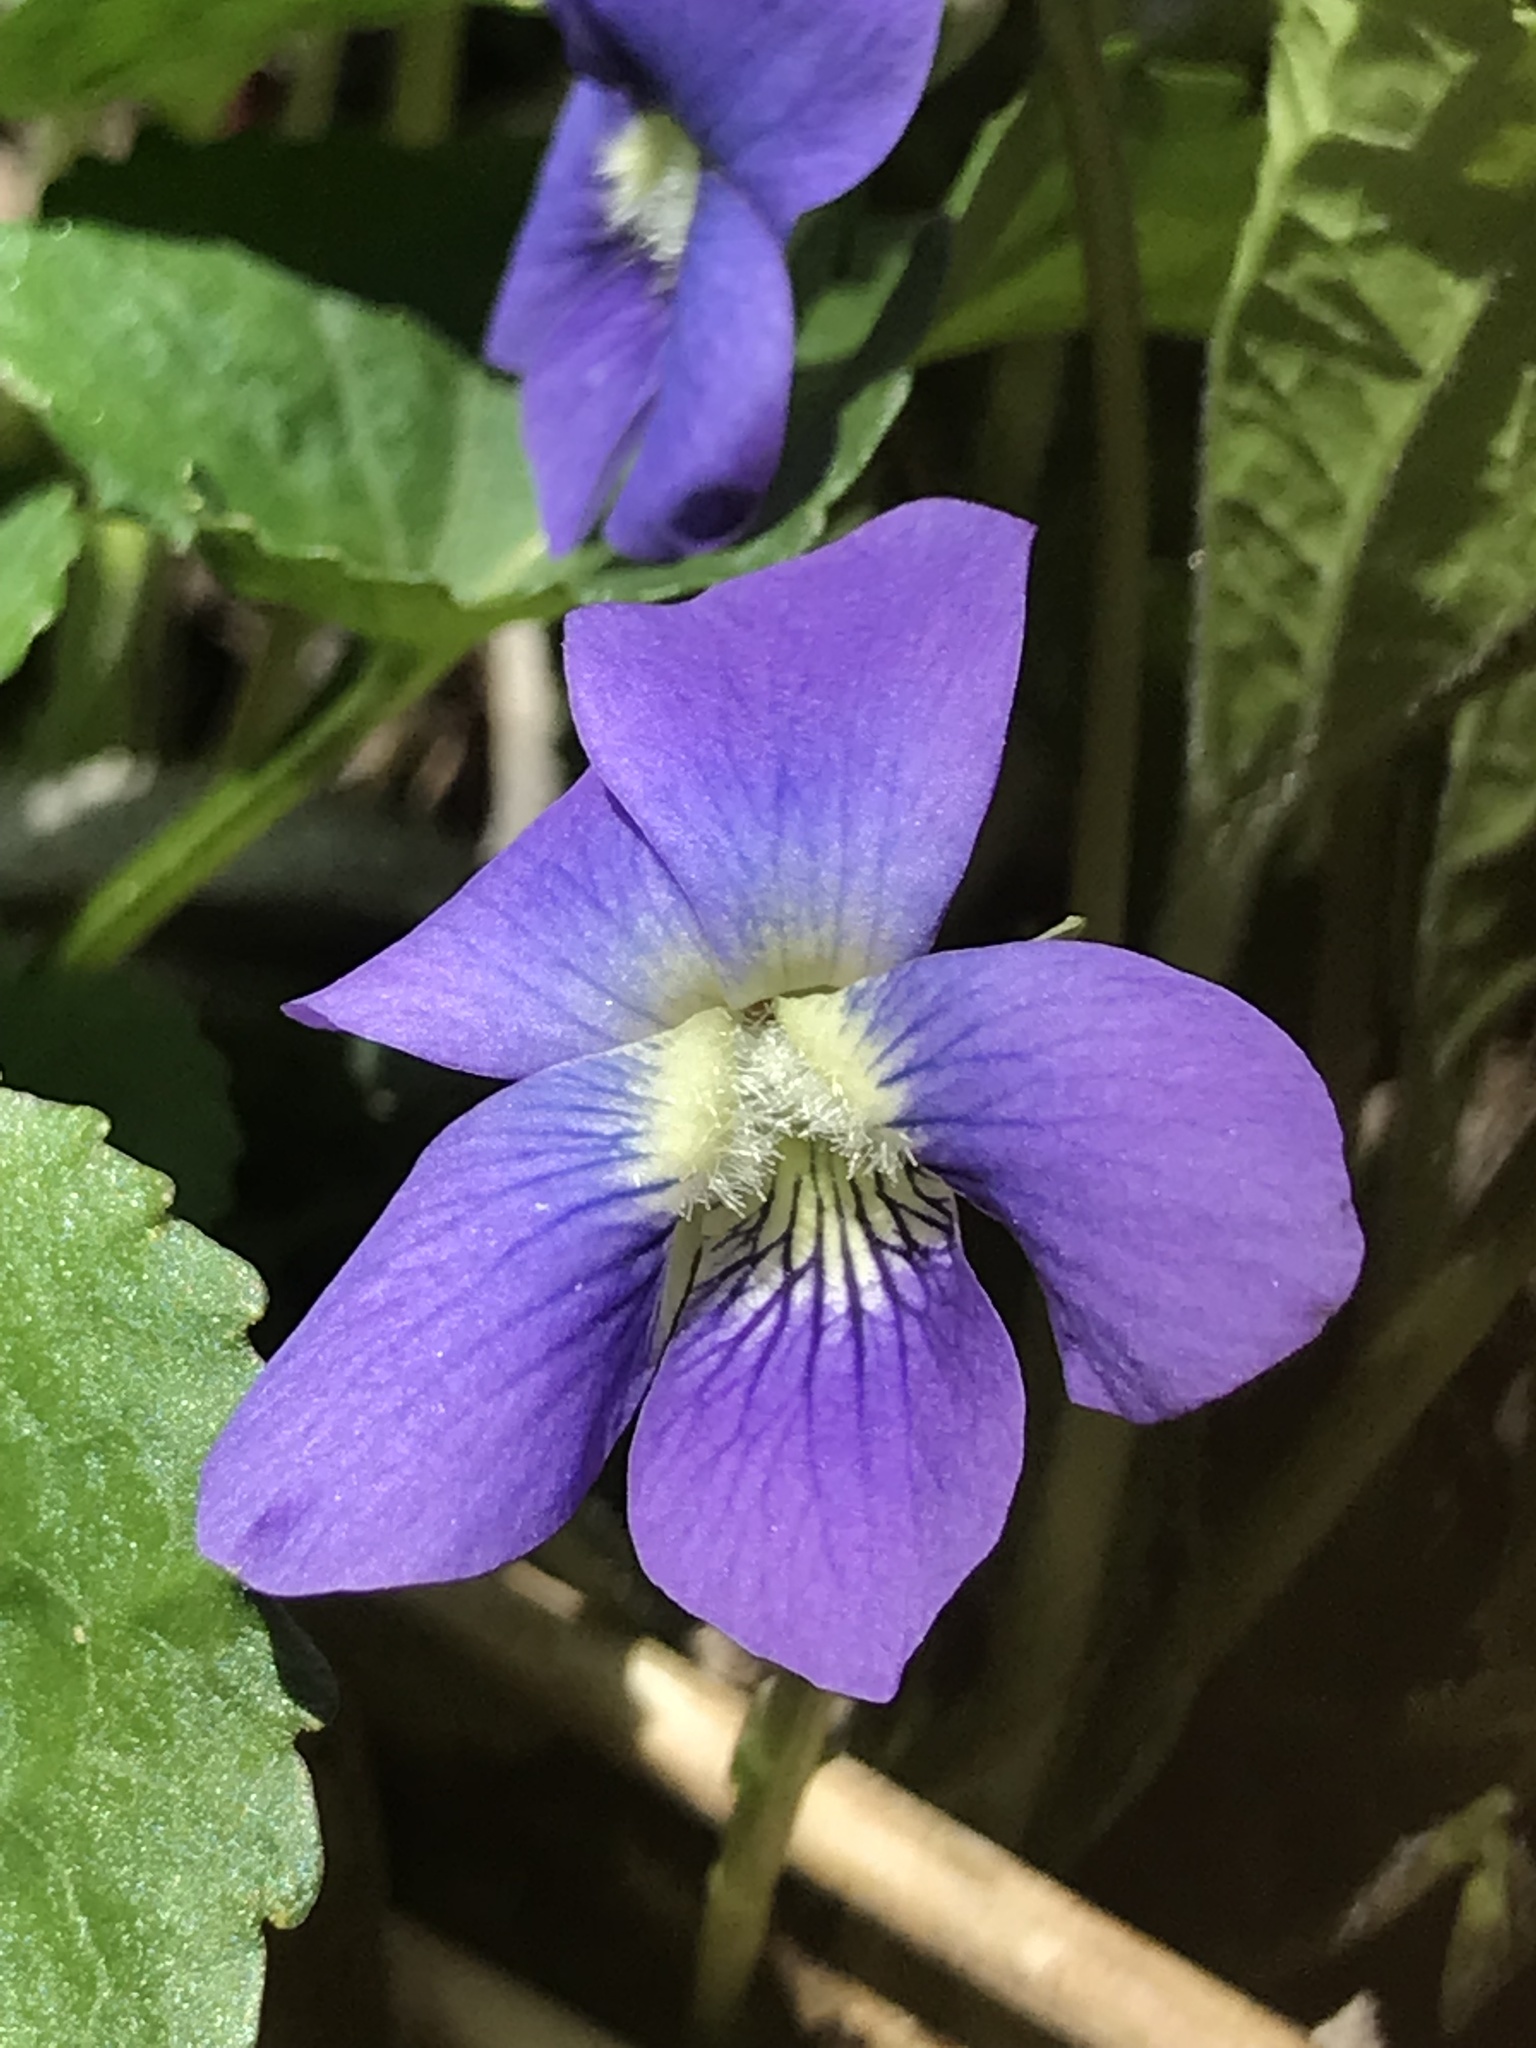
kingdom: Plantae
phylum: Tracheophyta
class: Magnoliopsida
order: Malpighiales
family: Violaceae
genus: Viola
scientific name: Viola sororia
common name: Dooryard violet
